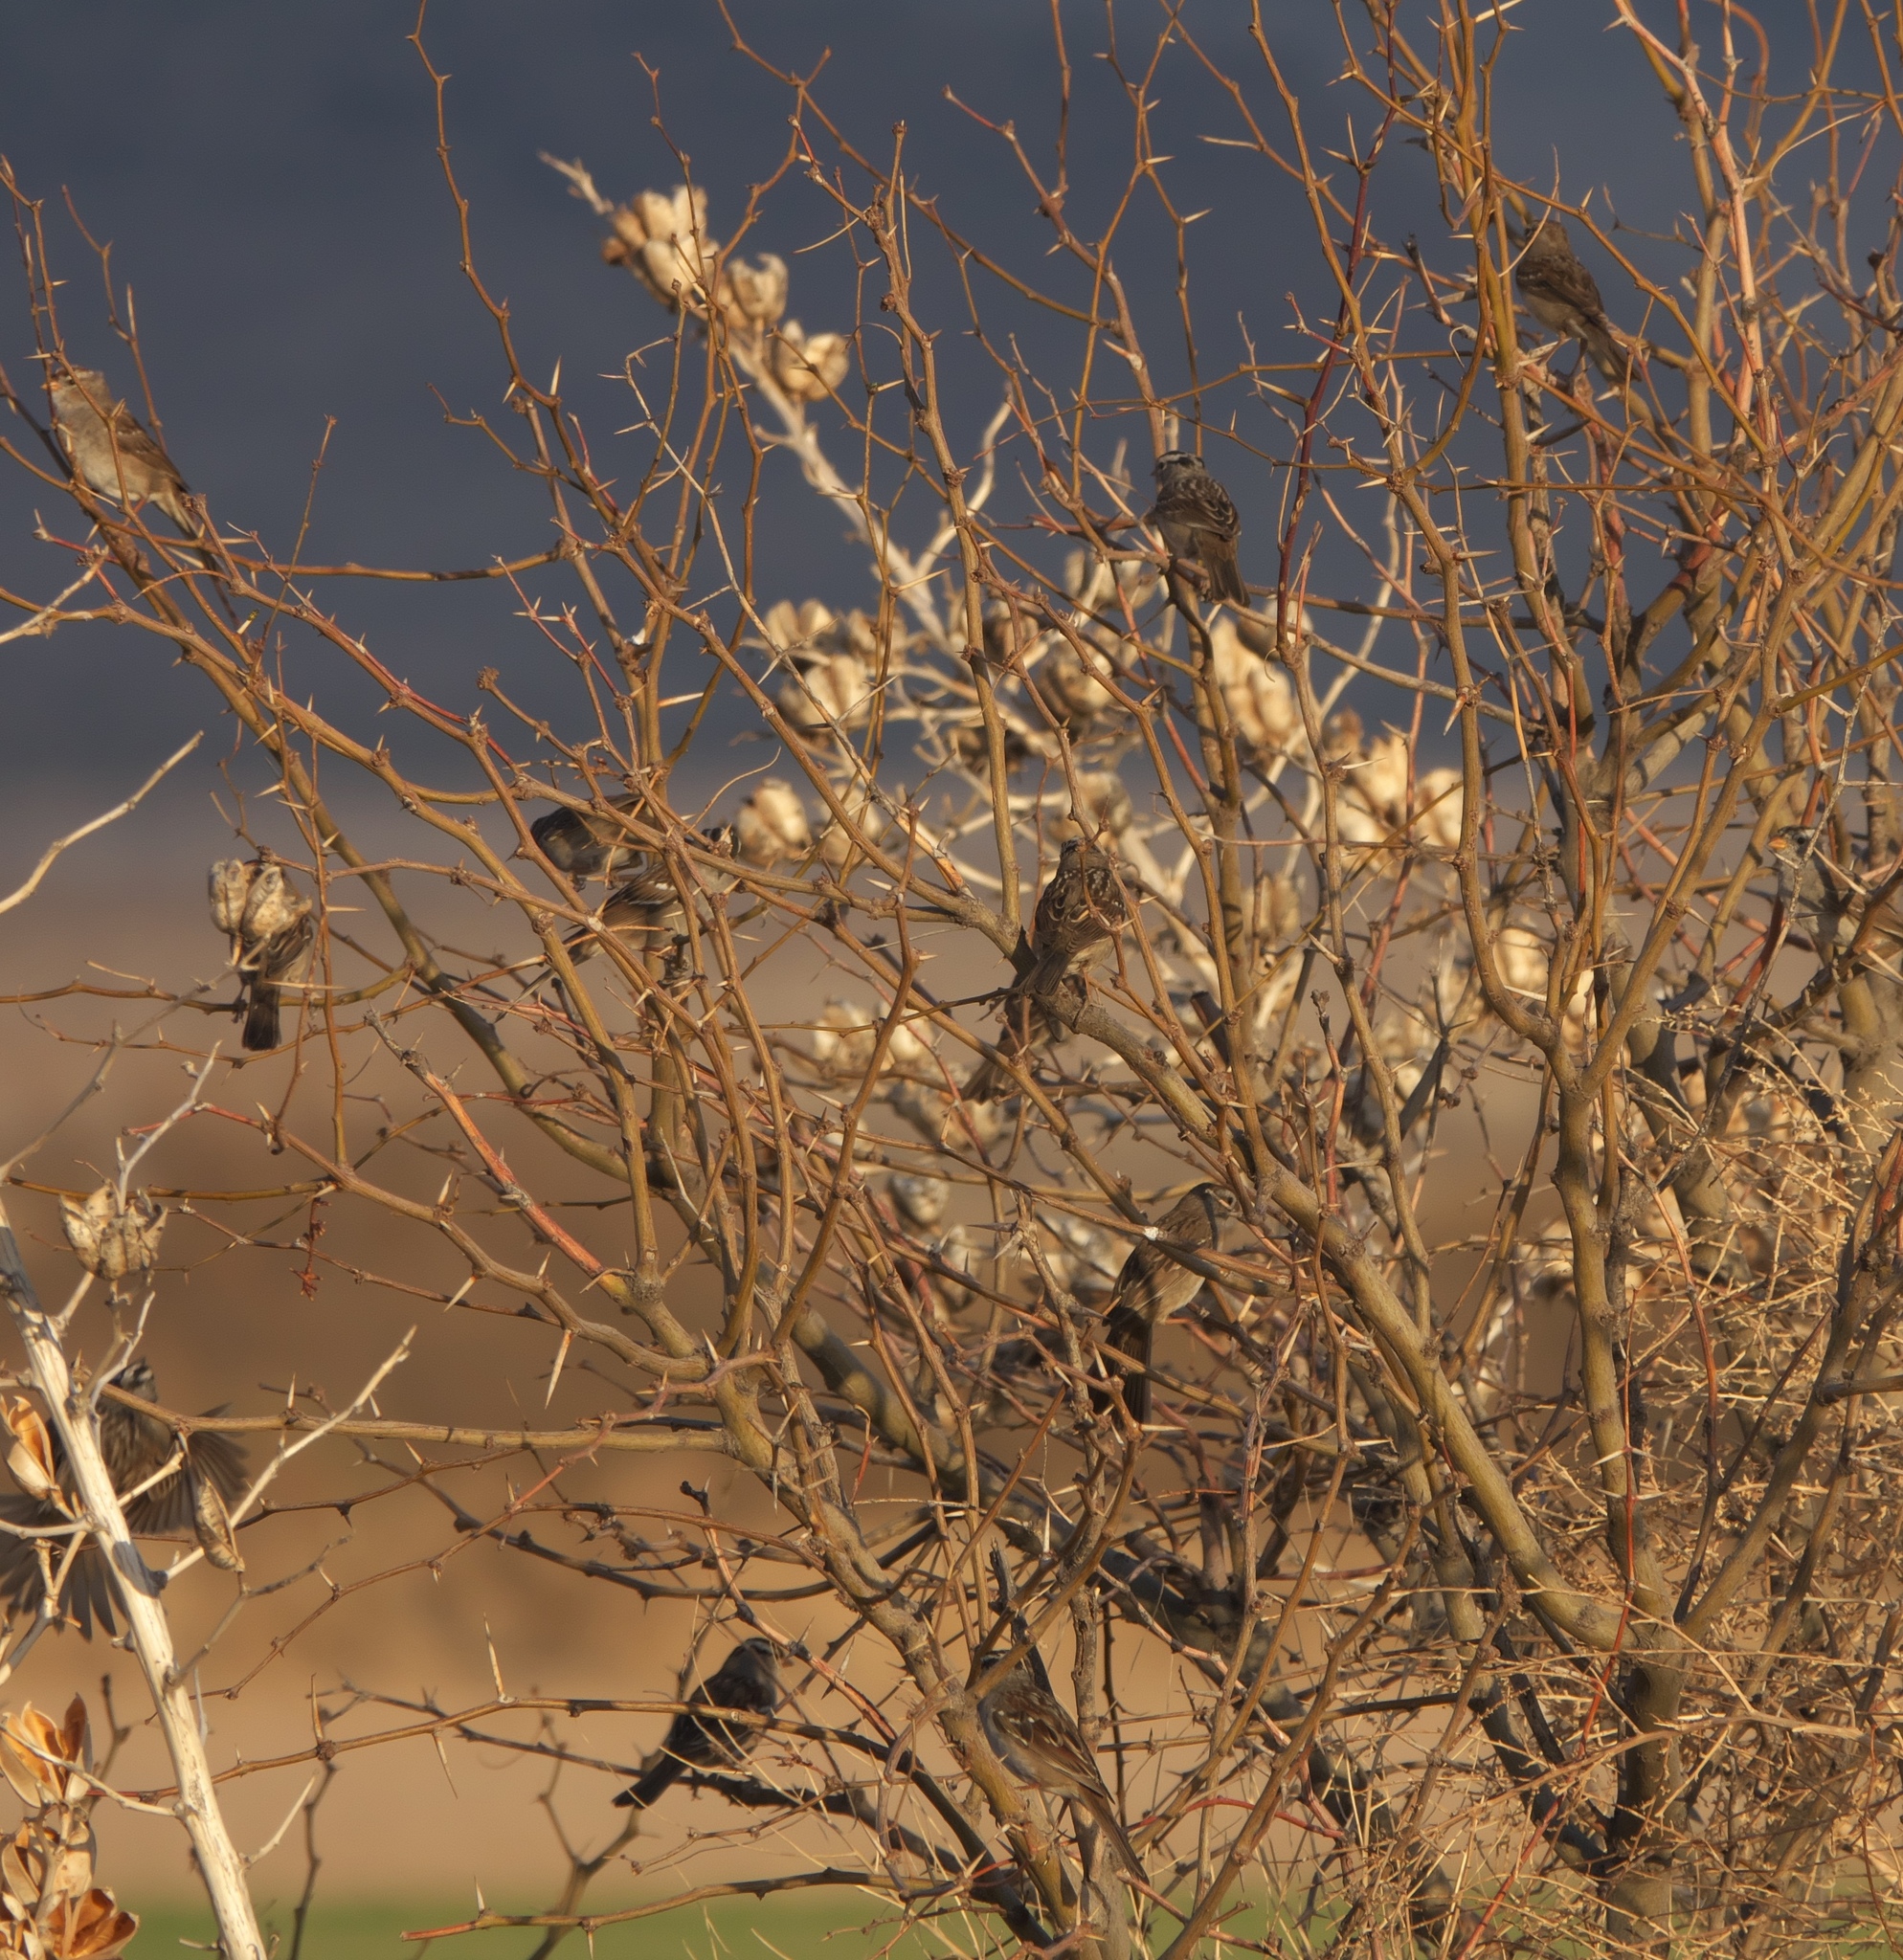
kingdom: Animalia
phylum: Chordata
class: Aves
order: Passeriformes
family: Passerellidae
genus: Zonotrichia
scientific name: Zonotrichia leucophrys
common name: White-crowned sparrow
